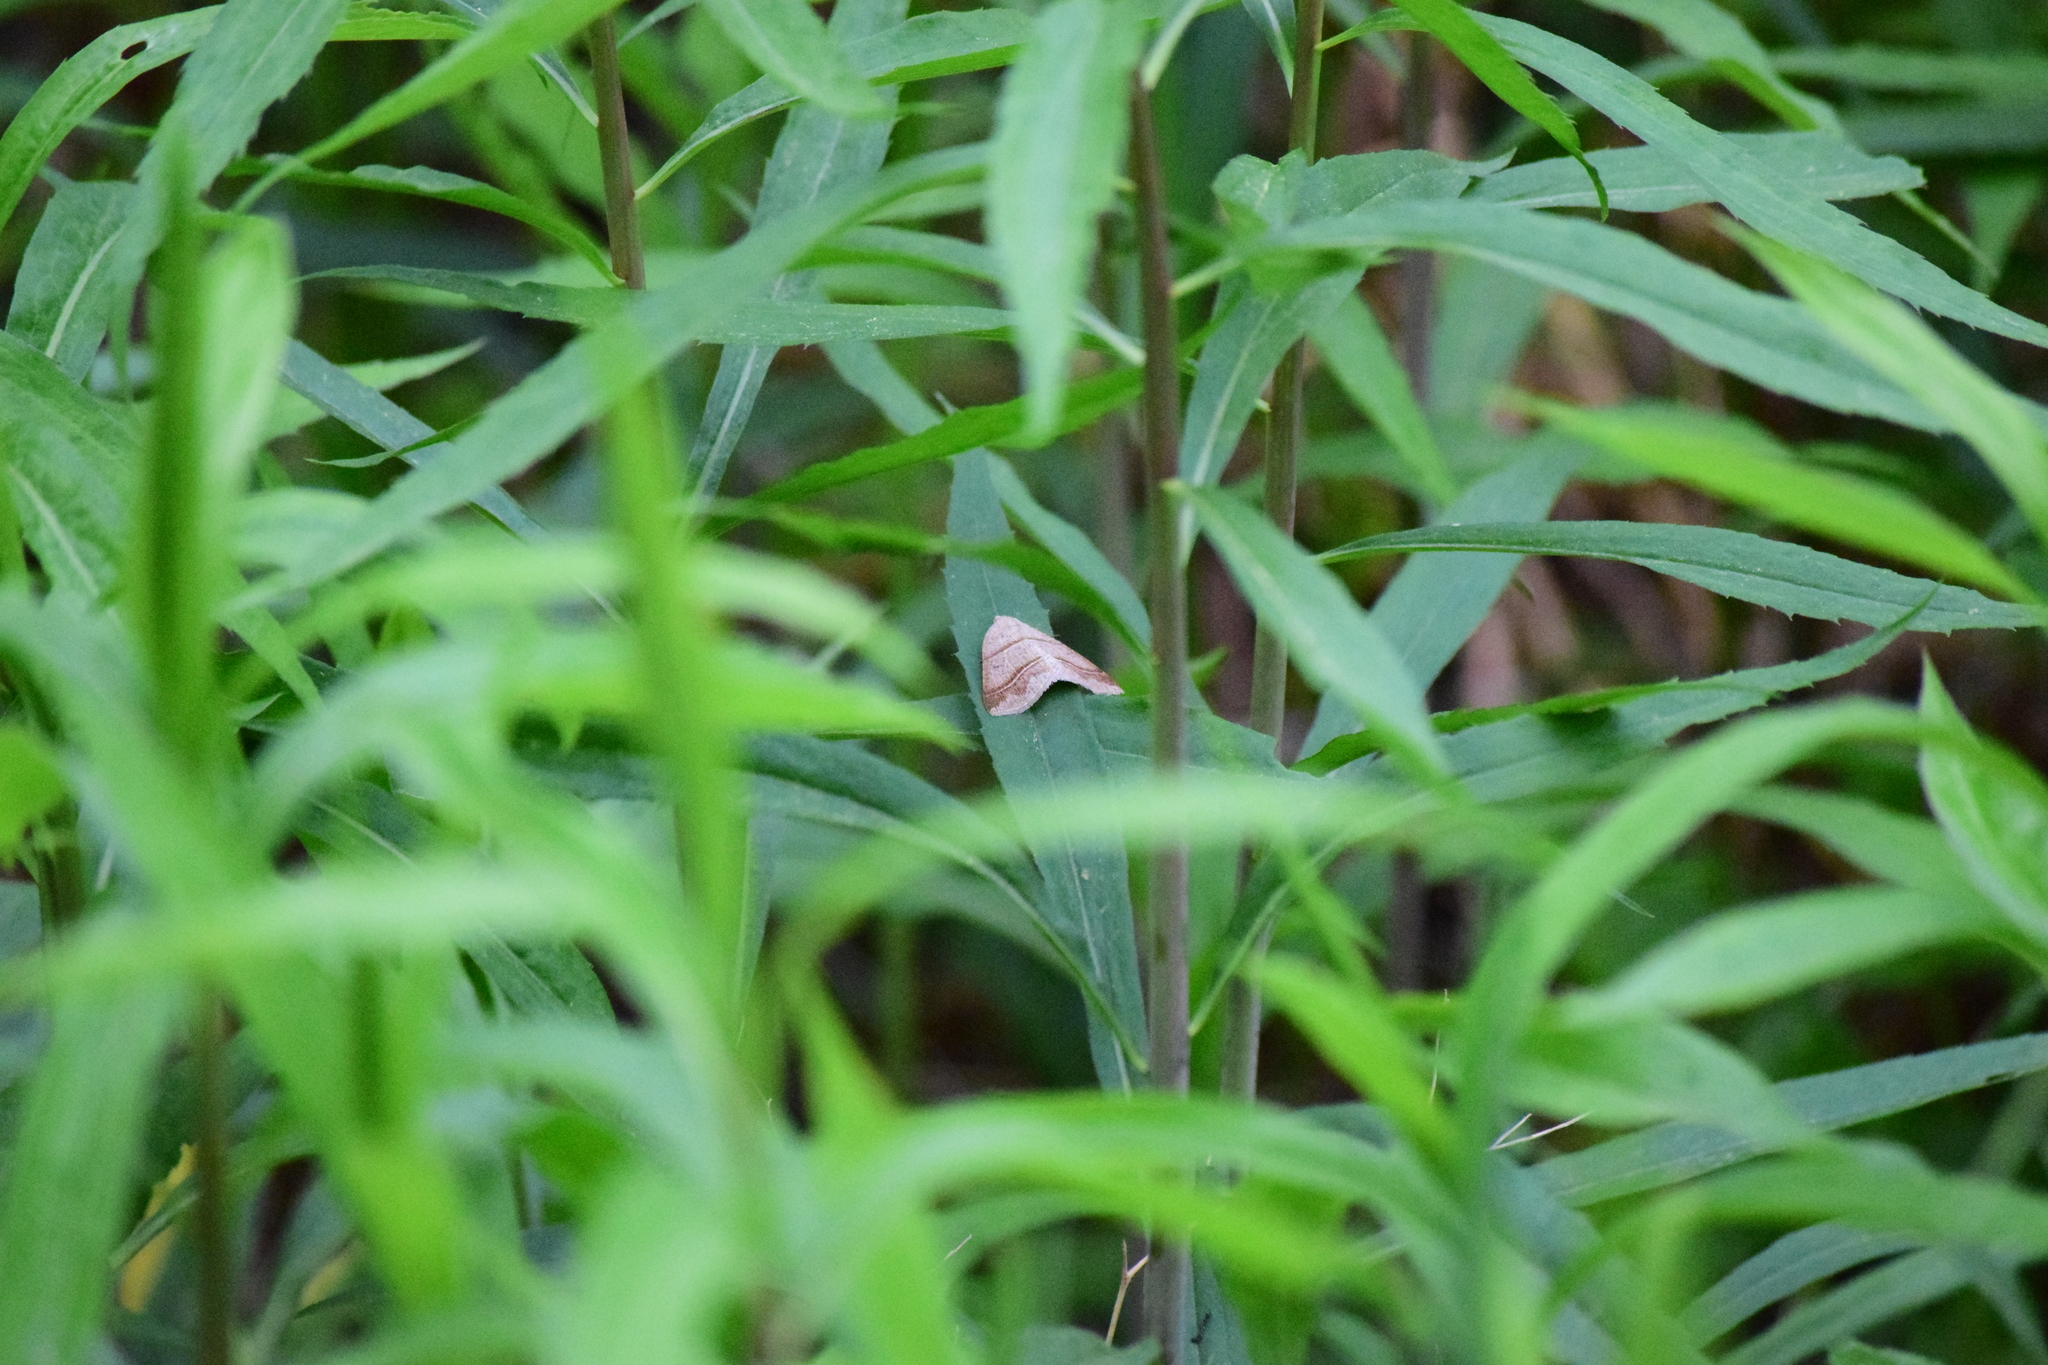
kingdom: Animalia
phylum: Arthropoda
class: Insecta
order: Lepidoptera
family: Pterophoridae
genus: Pterophorus
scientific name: Pterophorus Petrophora subaequaria
